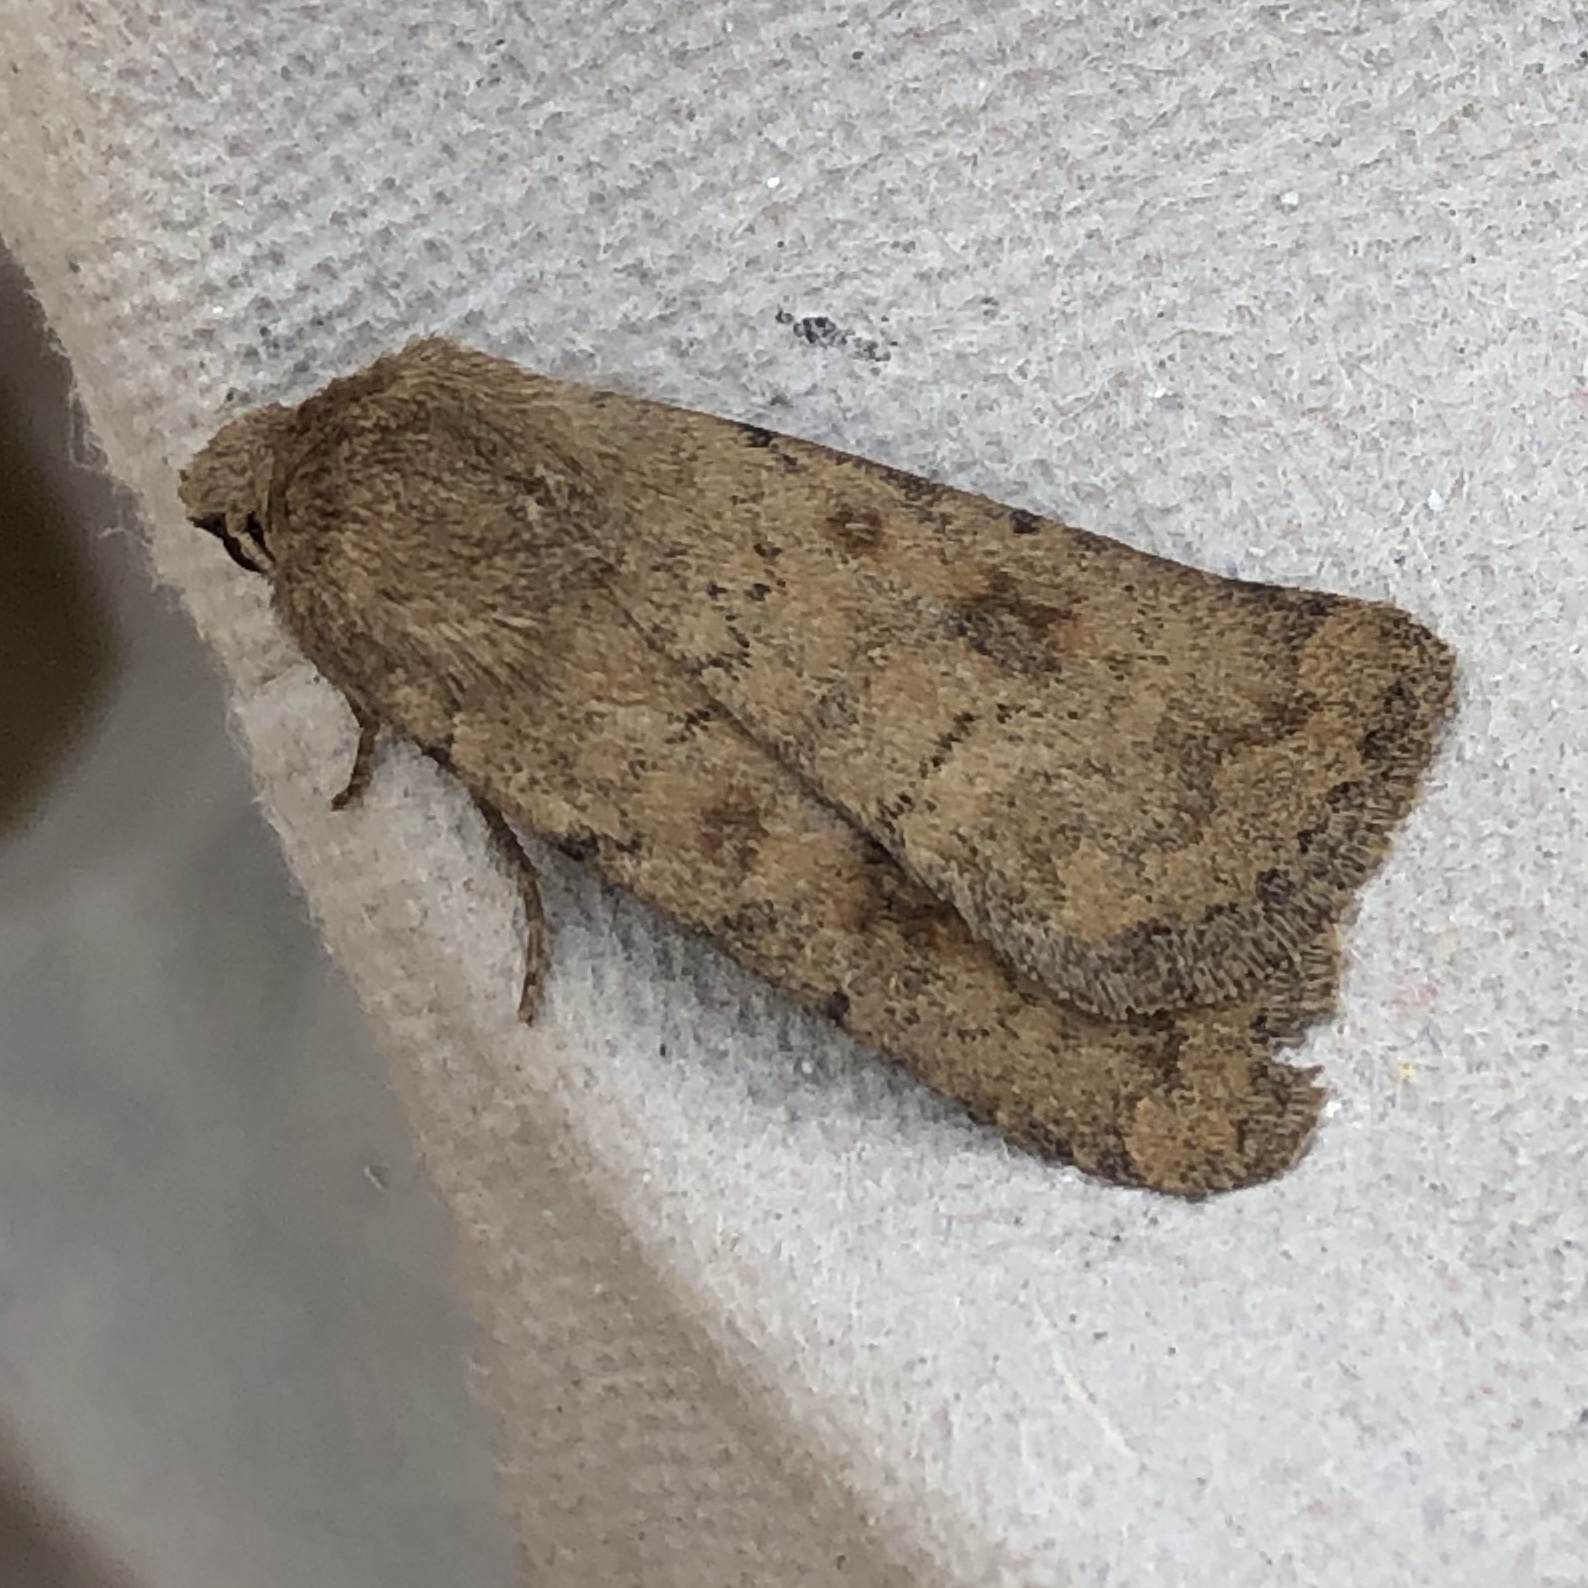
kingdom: Animalia
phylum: Arthropoda
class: Insecta
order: Lepidoptera
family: Noctuidae
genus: Caradrina
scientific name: Caradrina morpheus
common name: Mottled rustic
